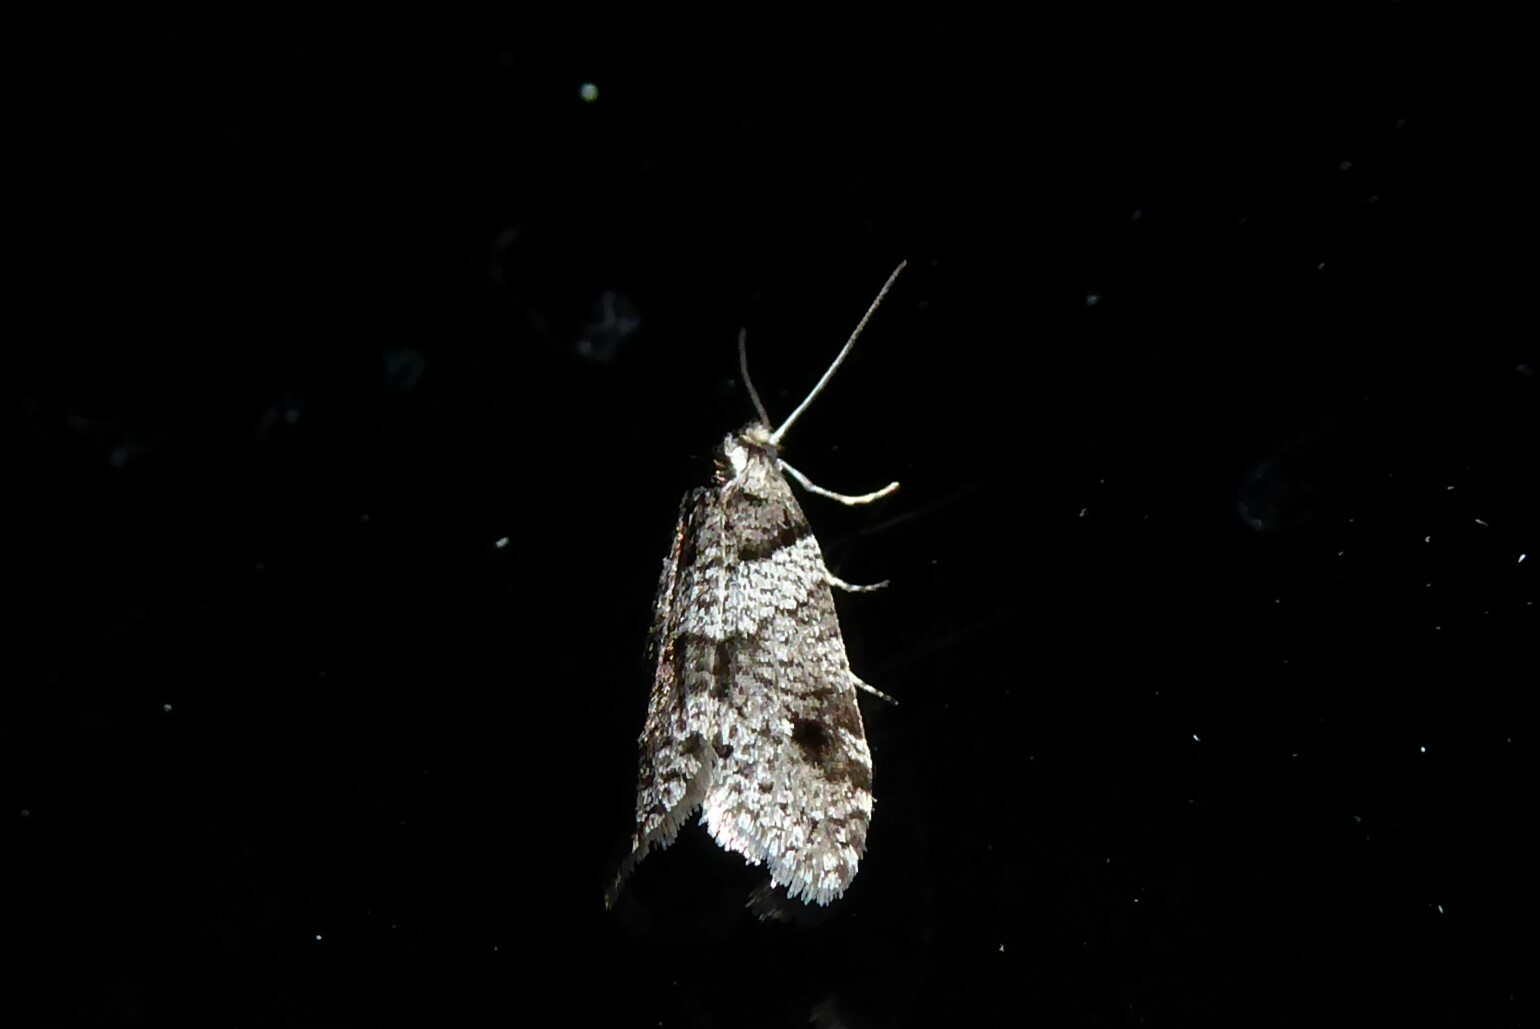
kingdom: Animalia
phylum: Arthropoda
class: Insecta
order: Lepidoptera
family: Psychidae
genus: Lepidoscia
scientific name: Lepidoscia heliochares
